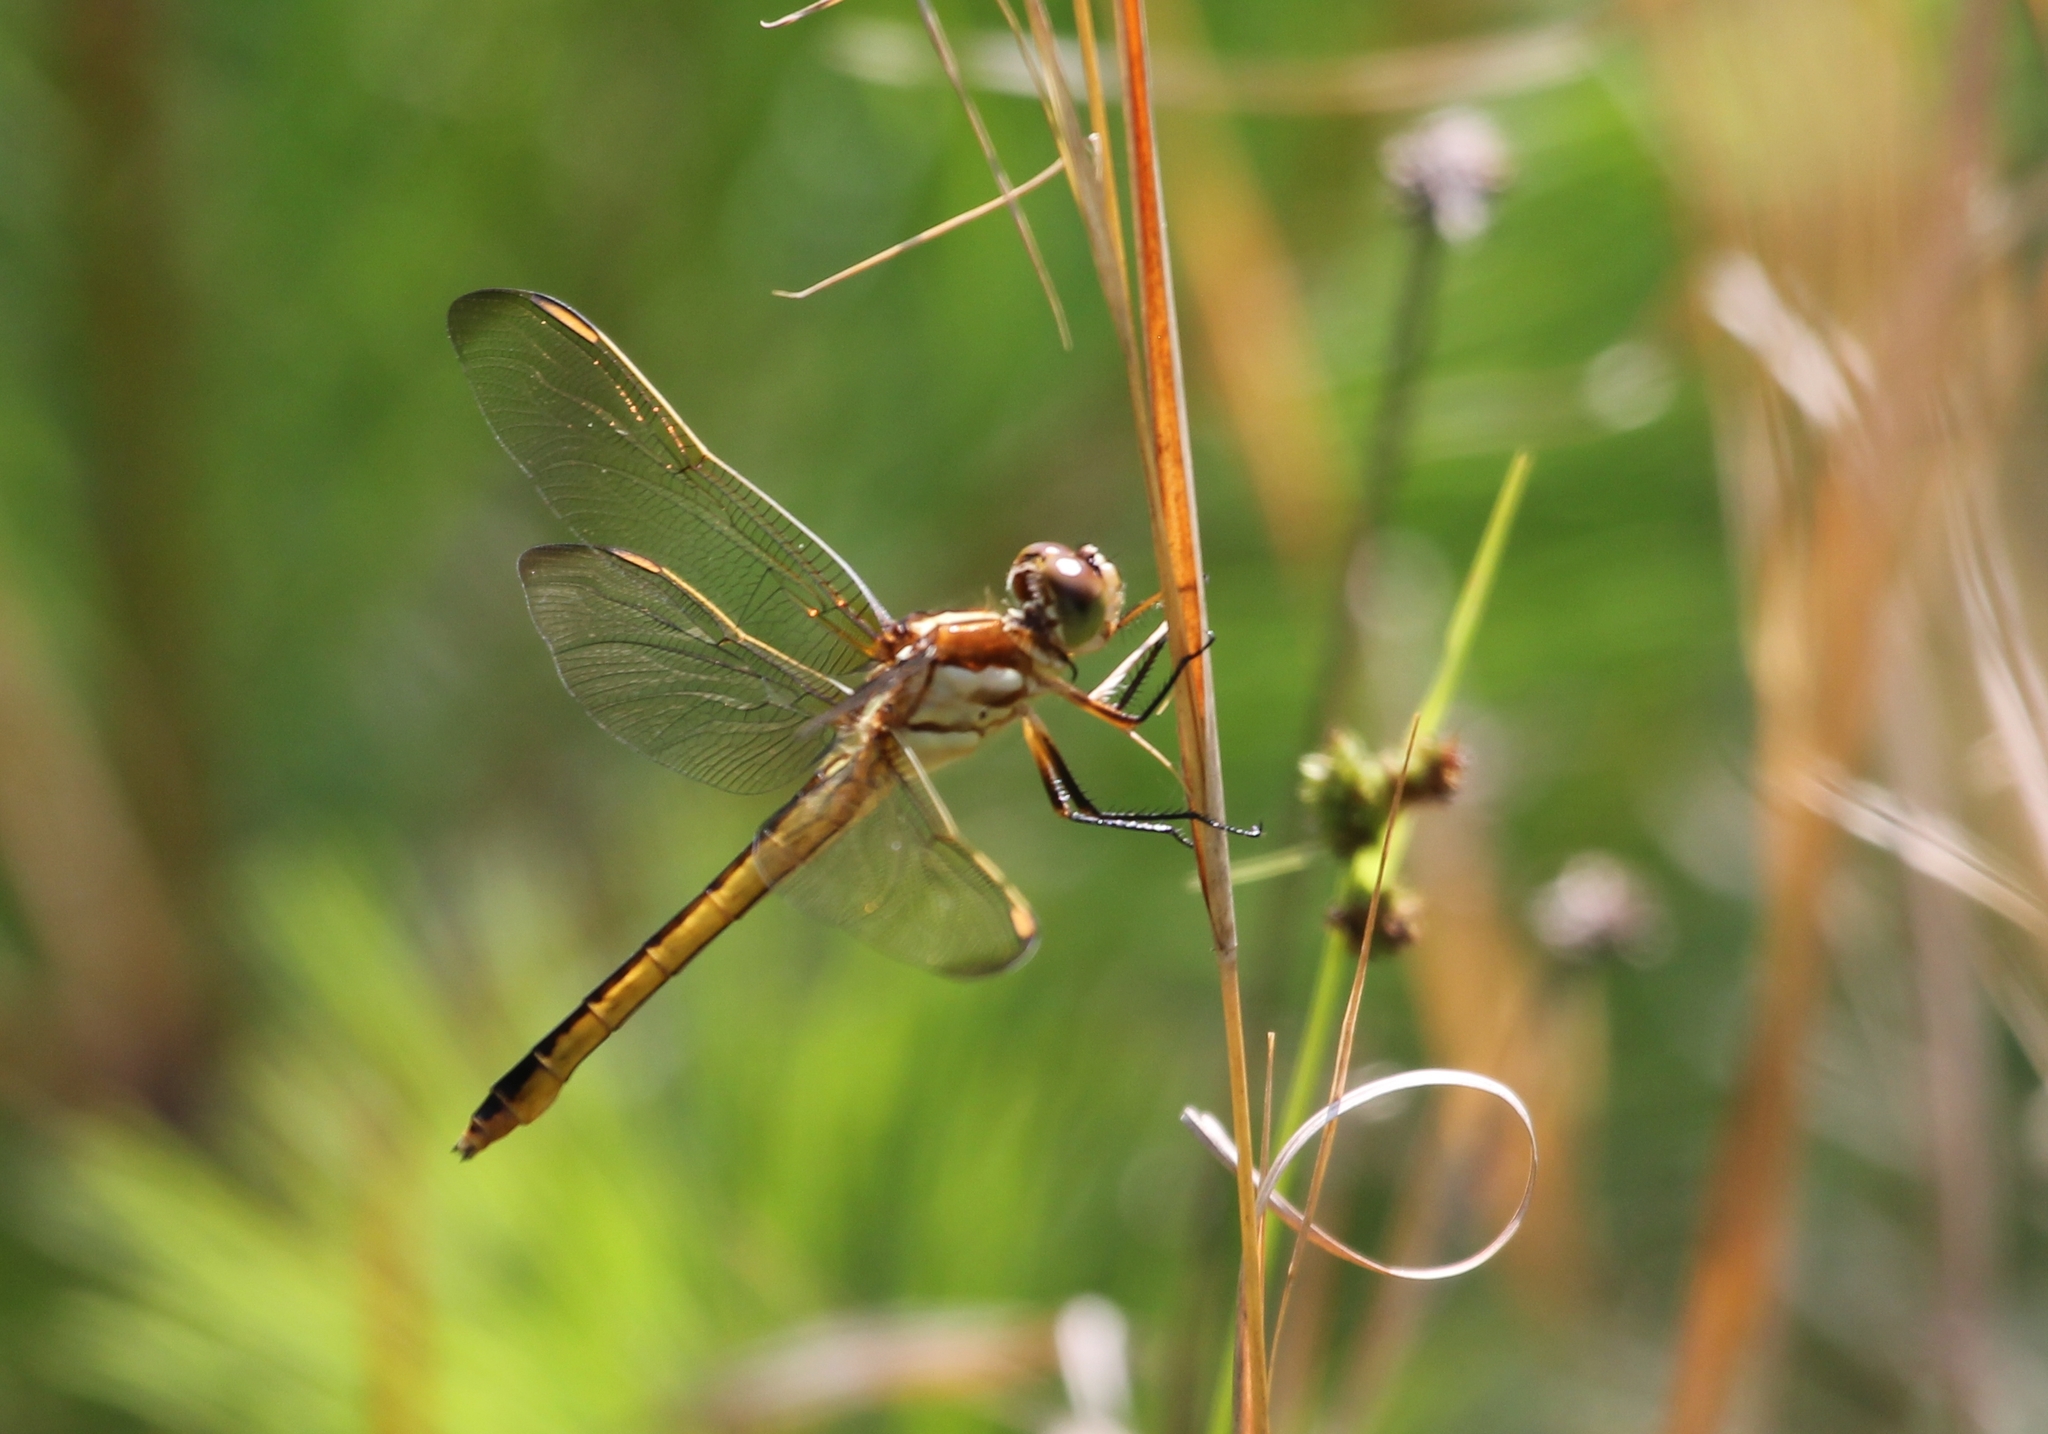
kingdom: Animalia
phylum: Arthropoda
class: Insecta
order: Odonata
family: Libellulidae
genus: Libellula
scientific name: Libellula auripennis
